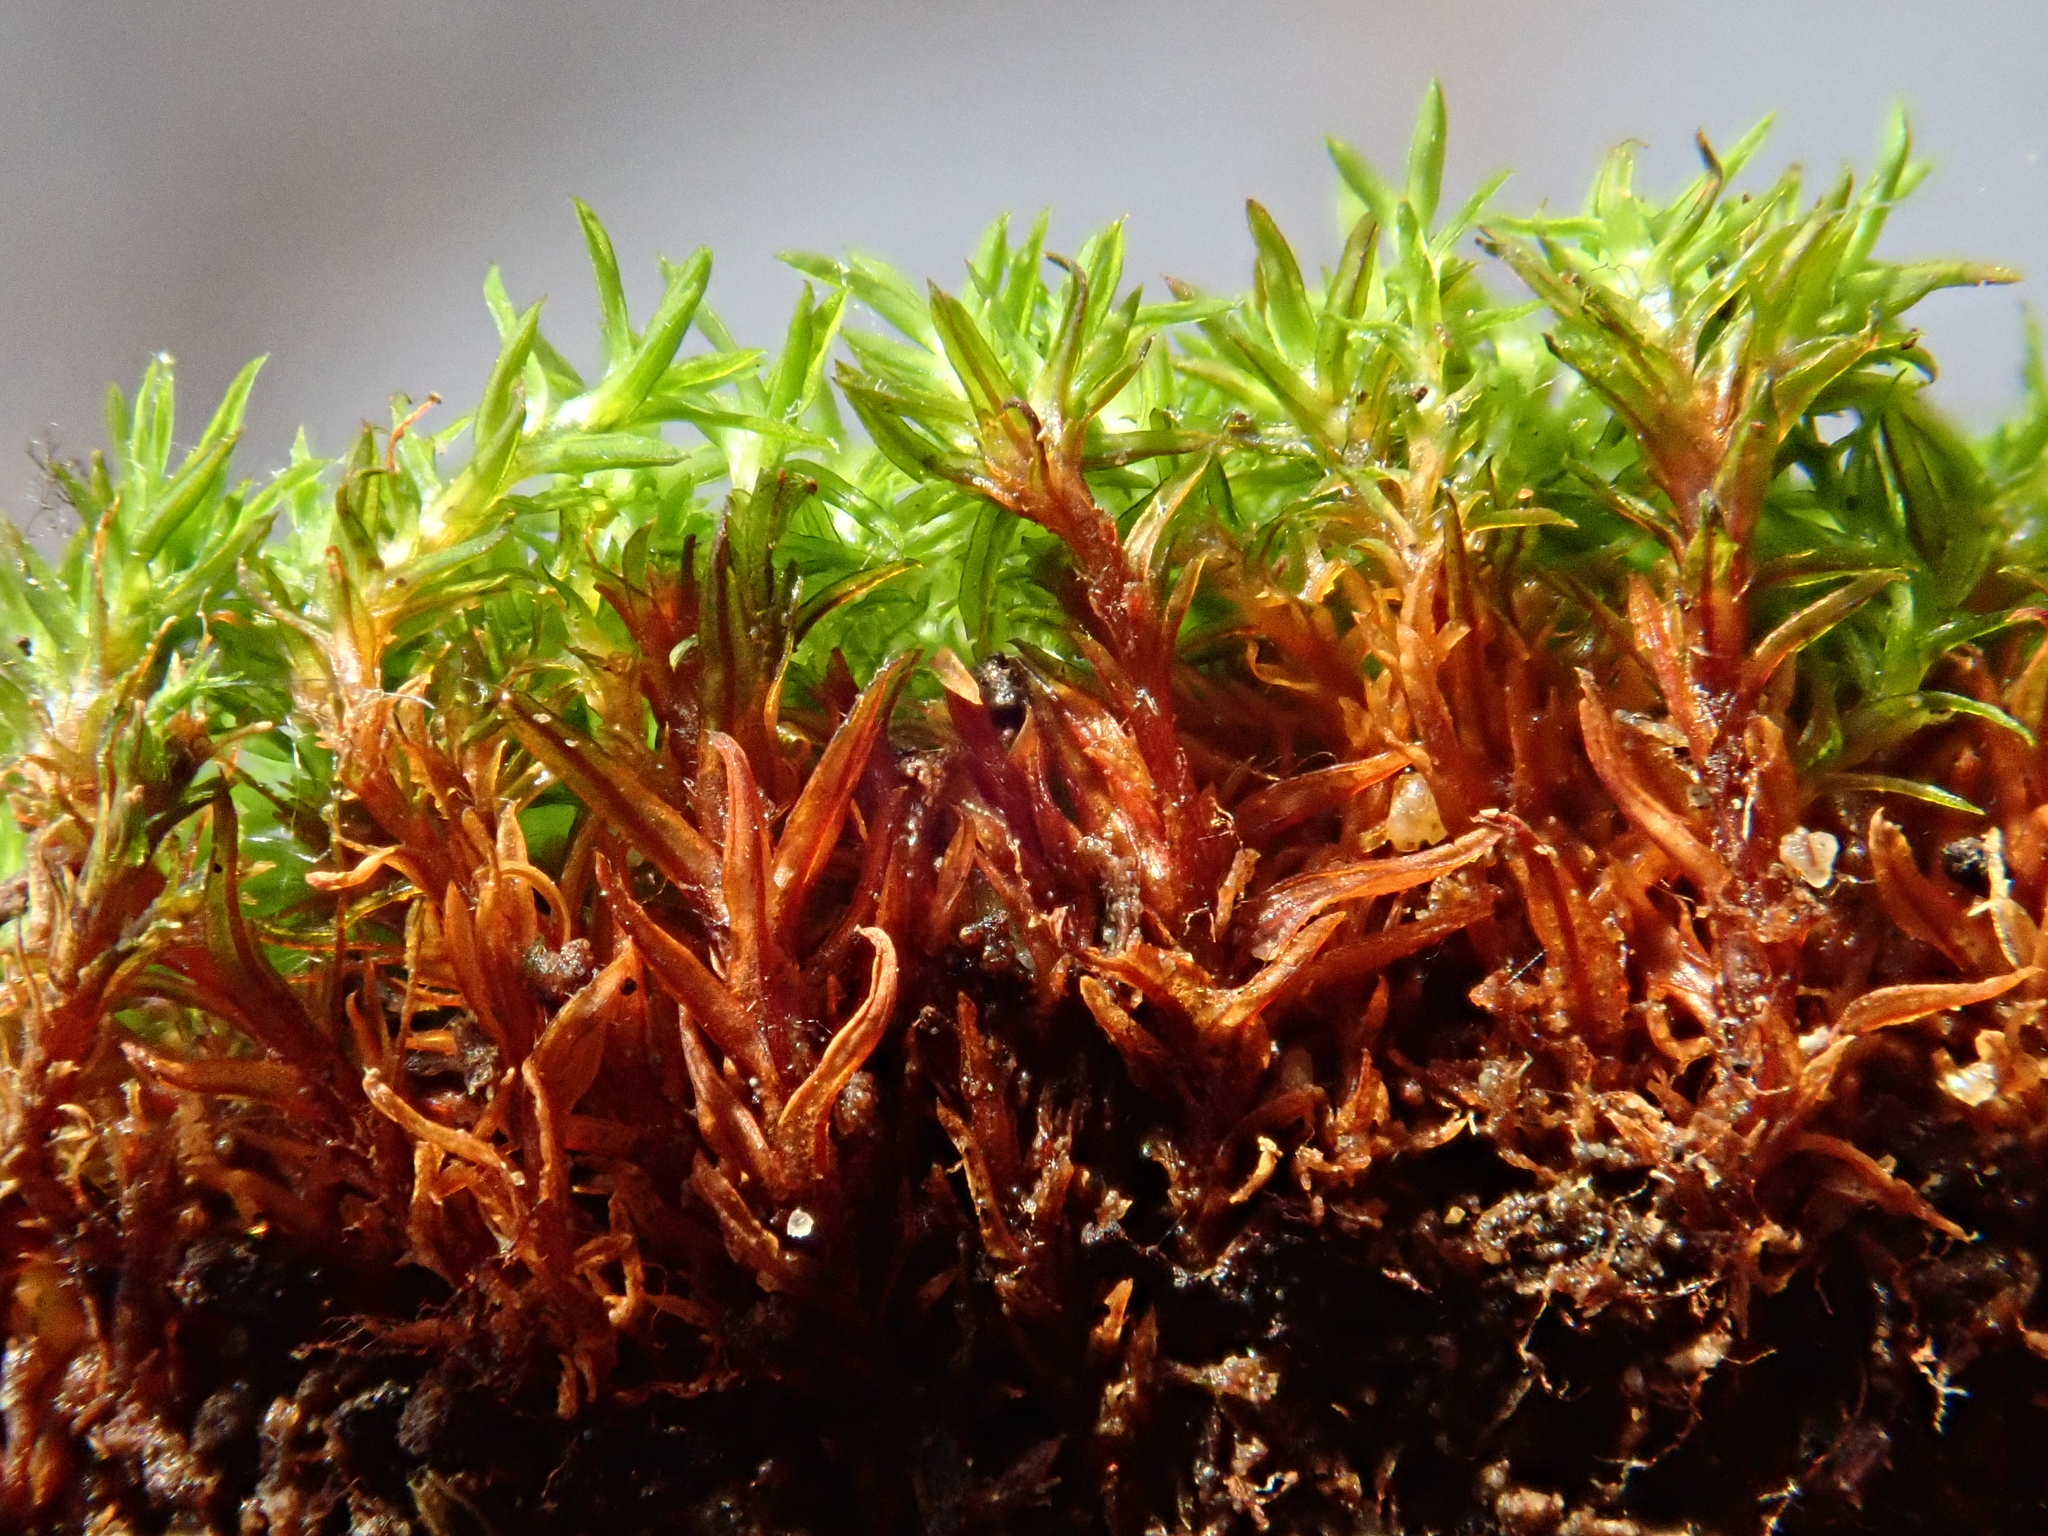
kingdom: Plantae
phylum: Bryophyta
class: Bryopsida
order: Pottiales
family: Pottiaceae
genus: Bryoerythrophyllum
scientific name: Bryoerythrophyllum recurvirostrum
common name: Red beard moss
